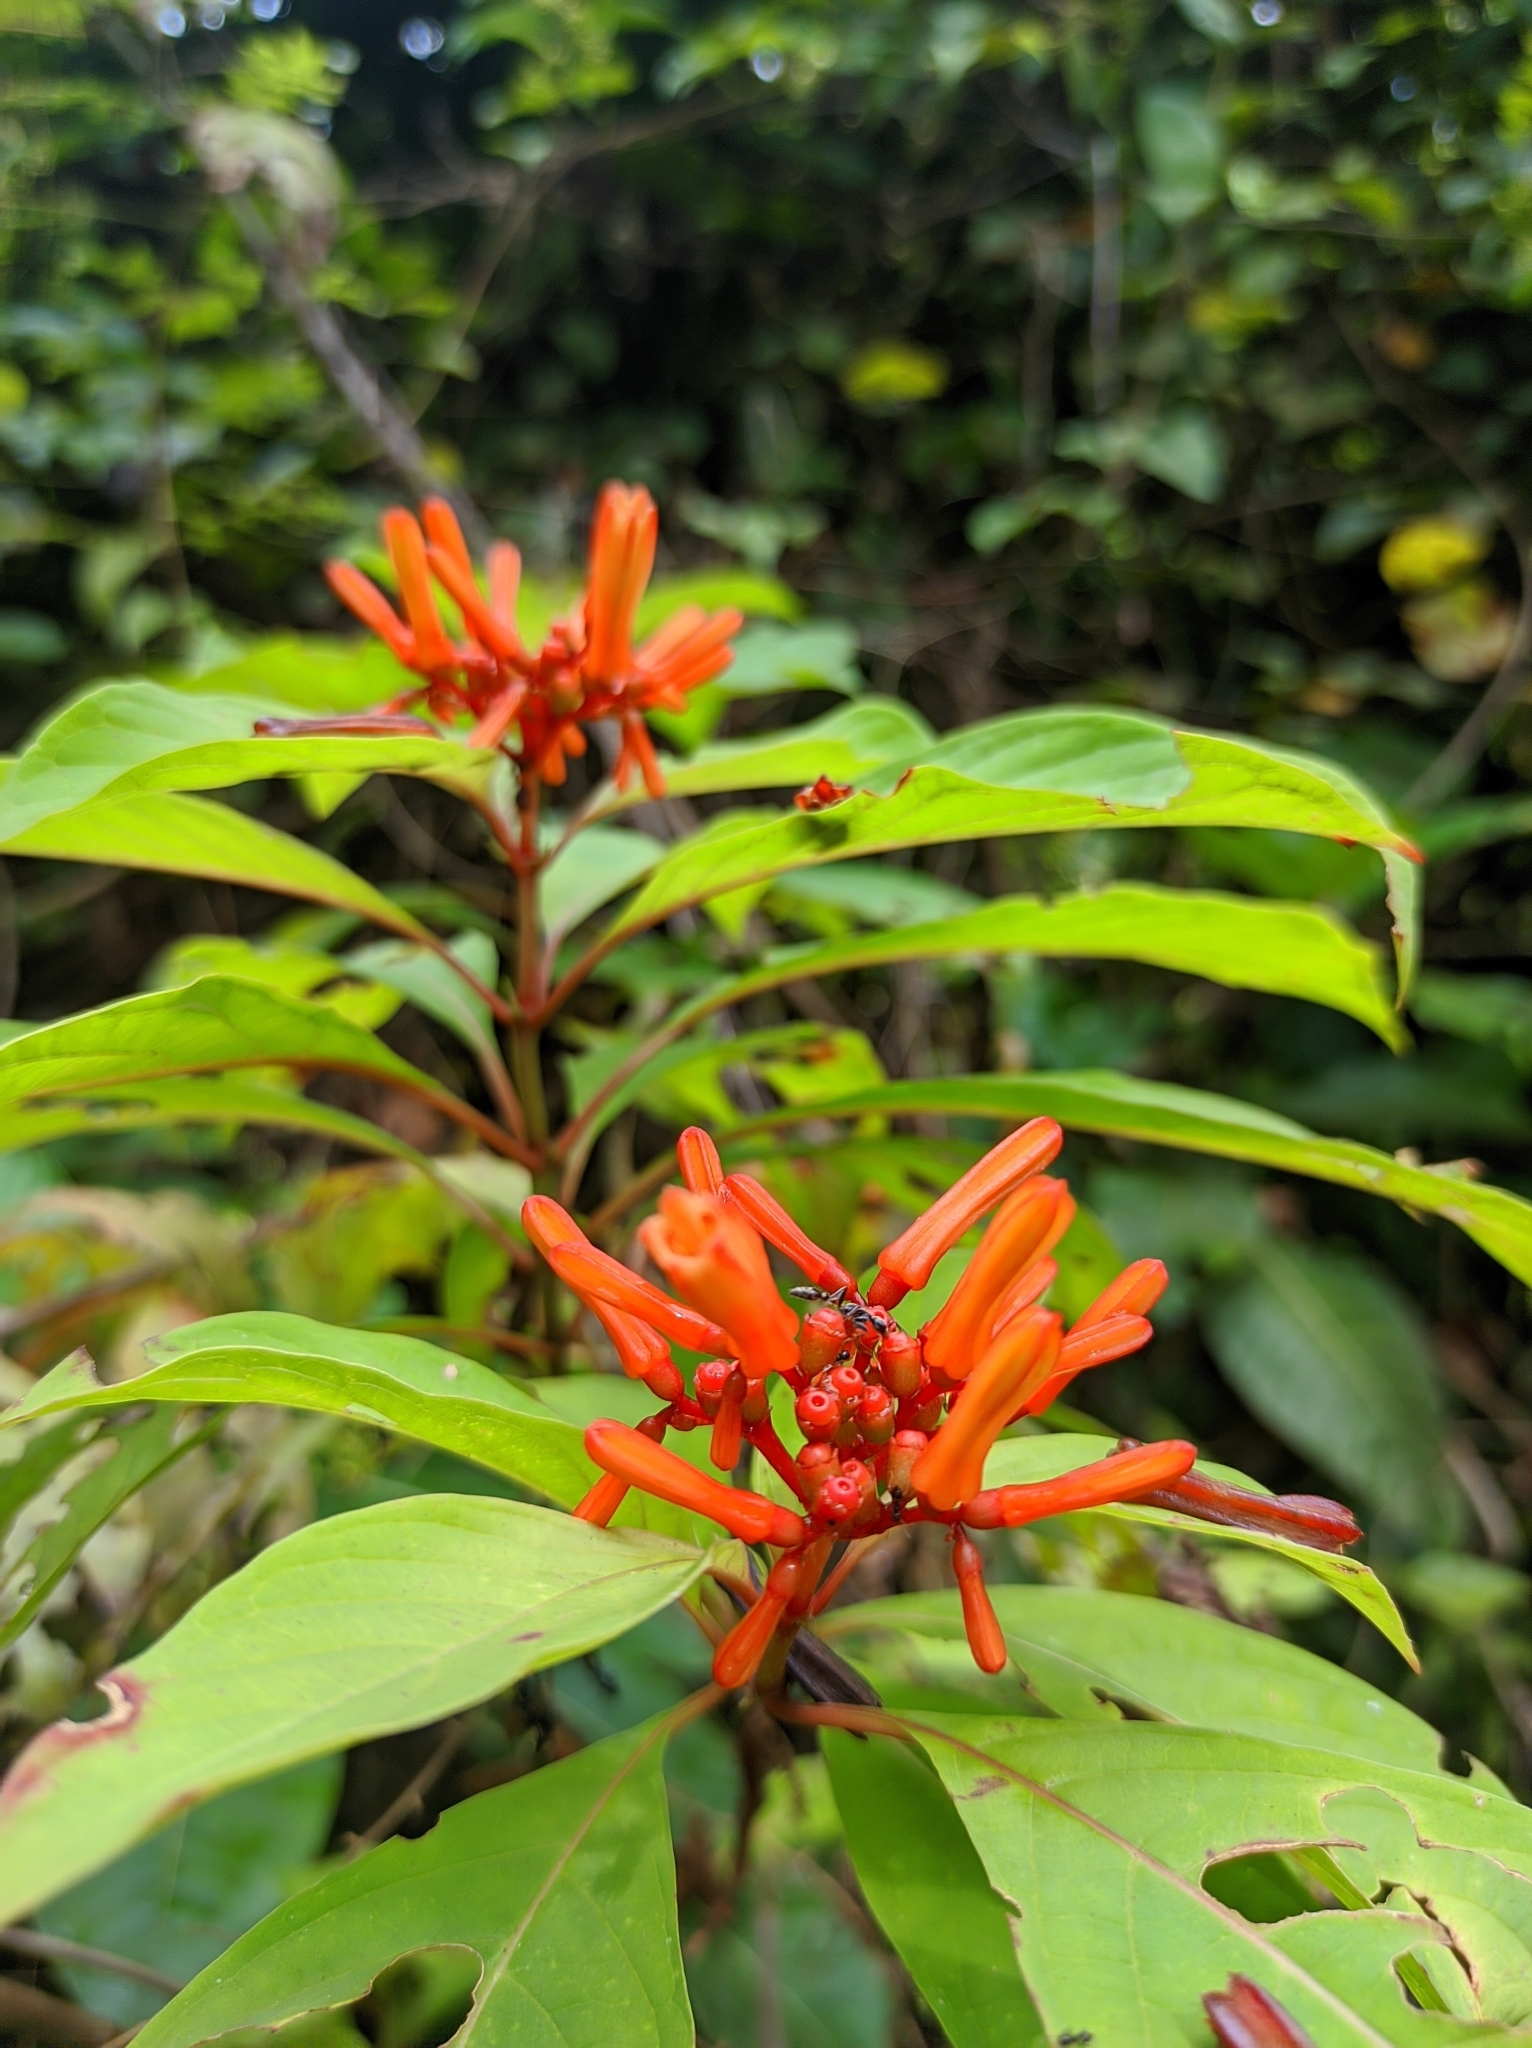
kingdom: Plantae
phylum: Tracheophyta
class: Magnoliopsida
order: Gentianales
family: Rubiaceae
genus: Hamelia
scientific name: Hamelia patens
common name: Redhead
